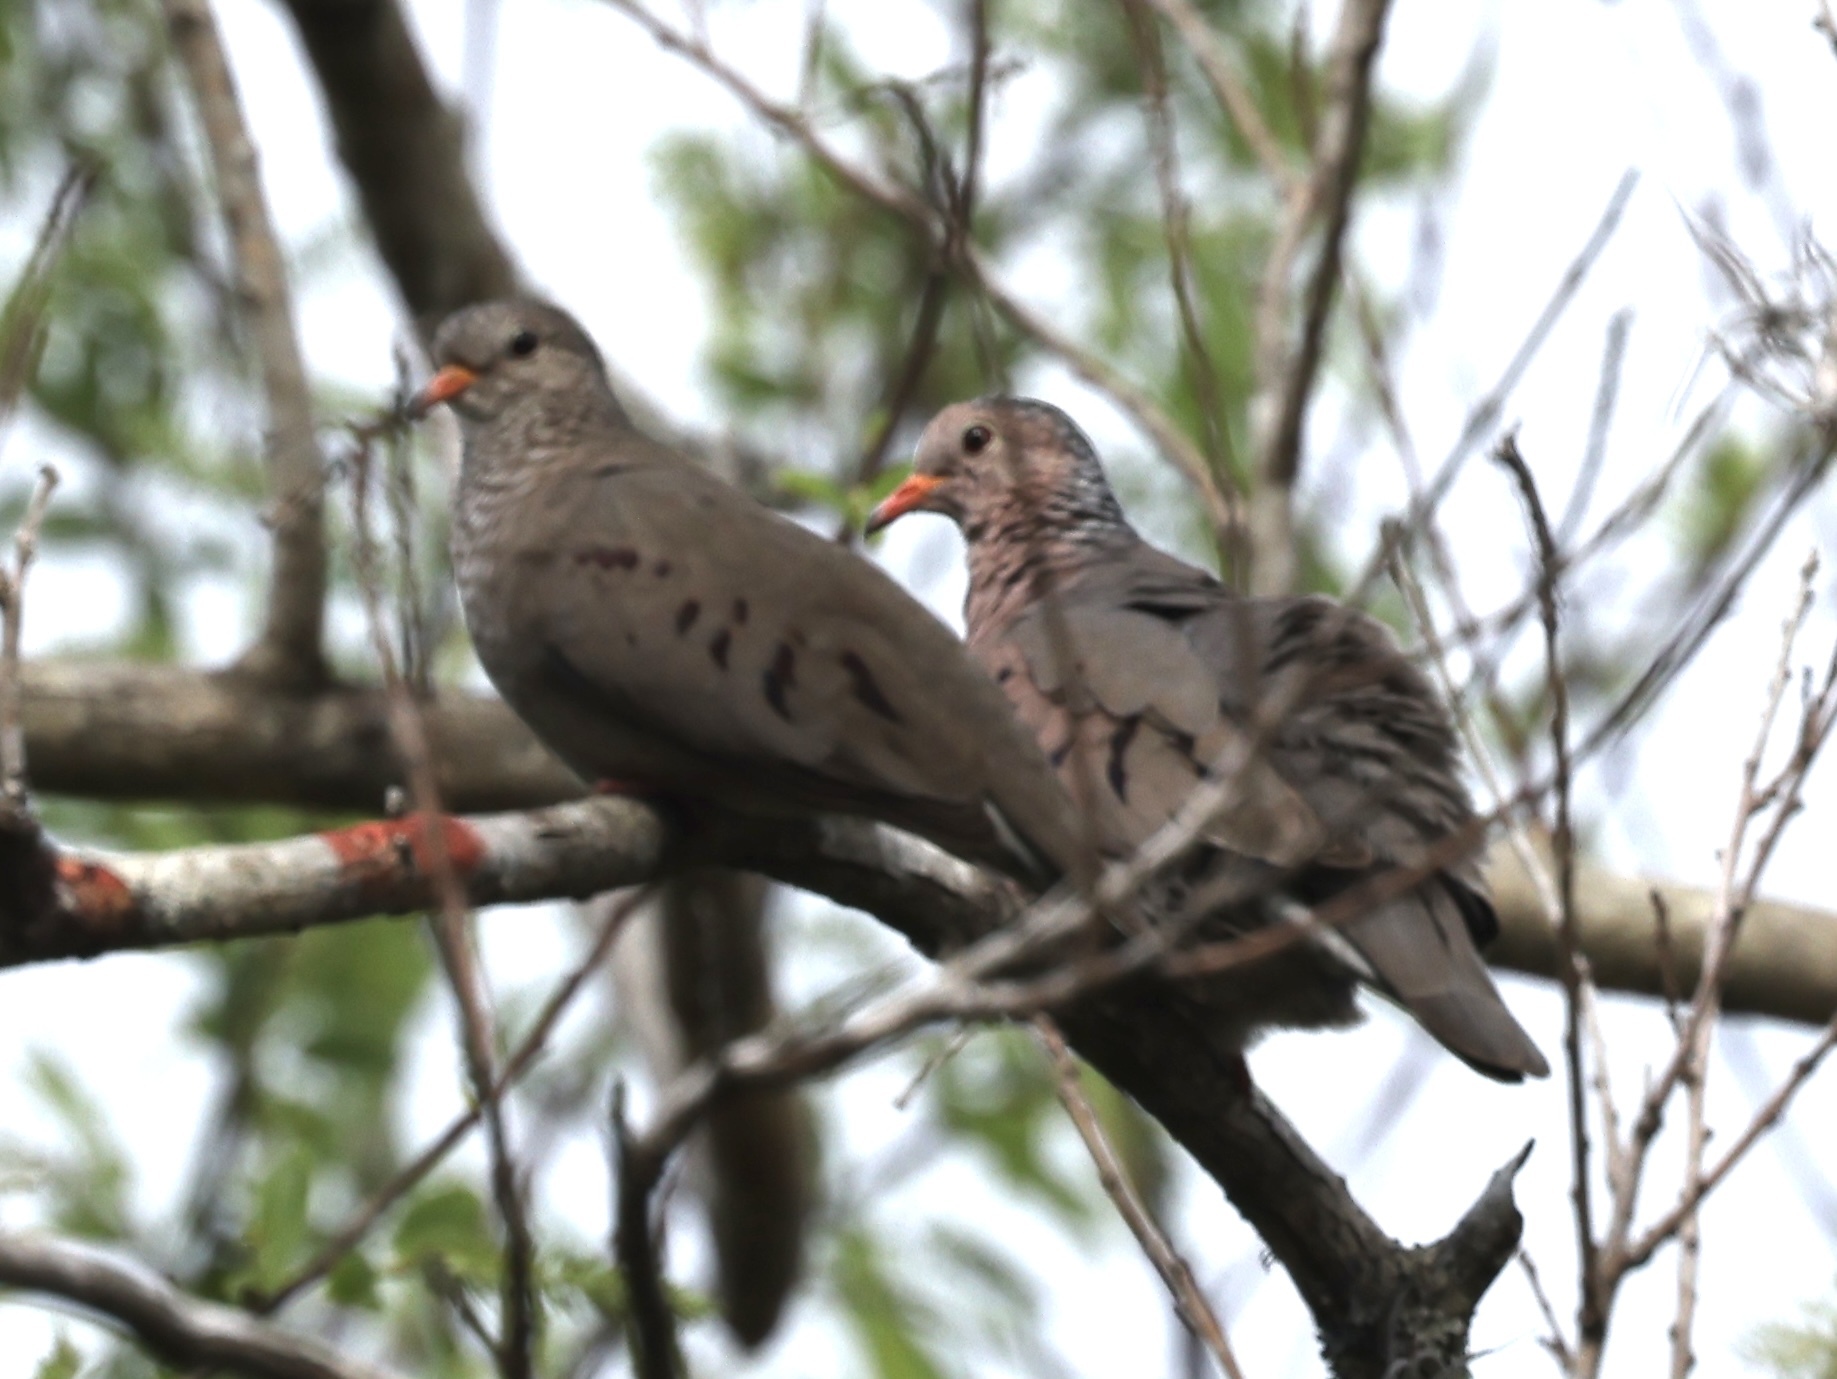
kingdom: Animalia
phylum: Chordata
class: Aves
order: Columbiformes
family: Columbidae
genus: Columbina
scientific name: Columbina passerina
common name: Common ground-dove
